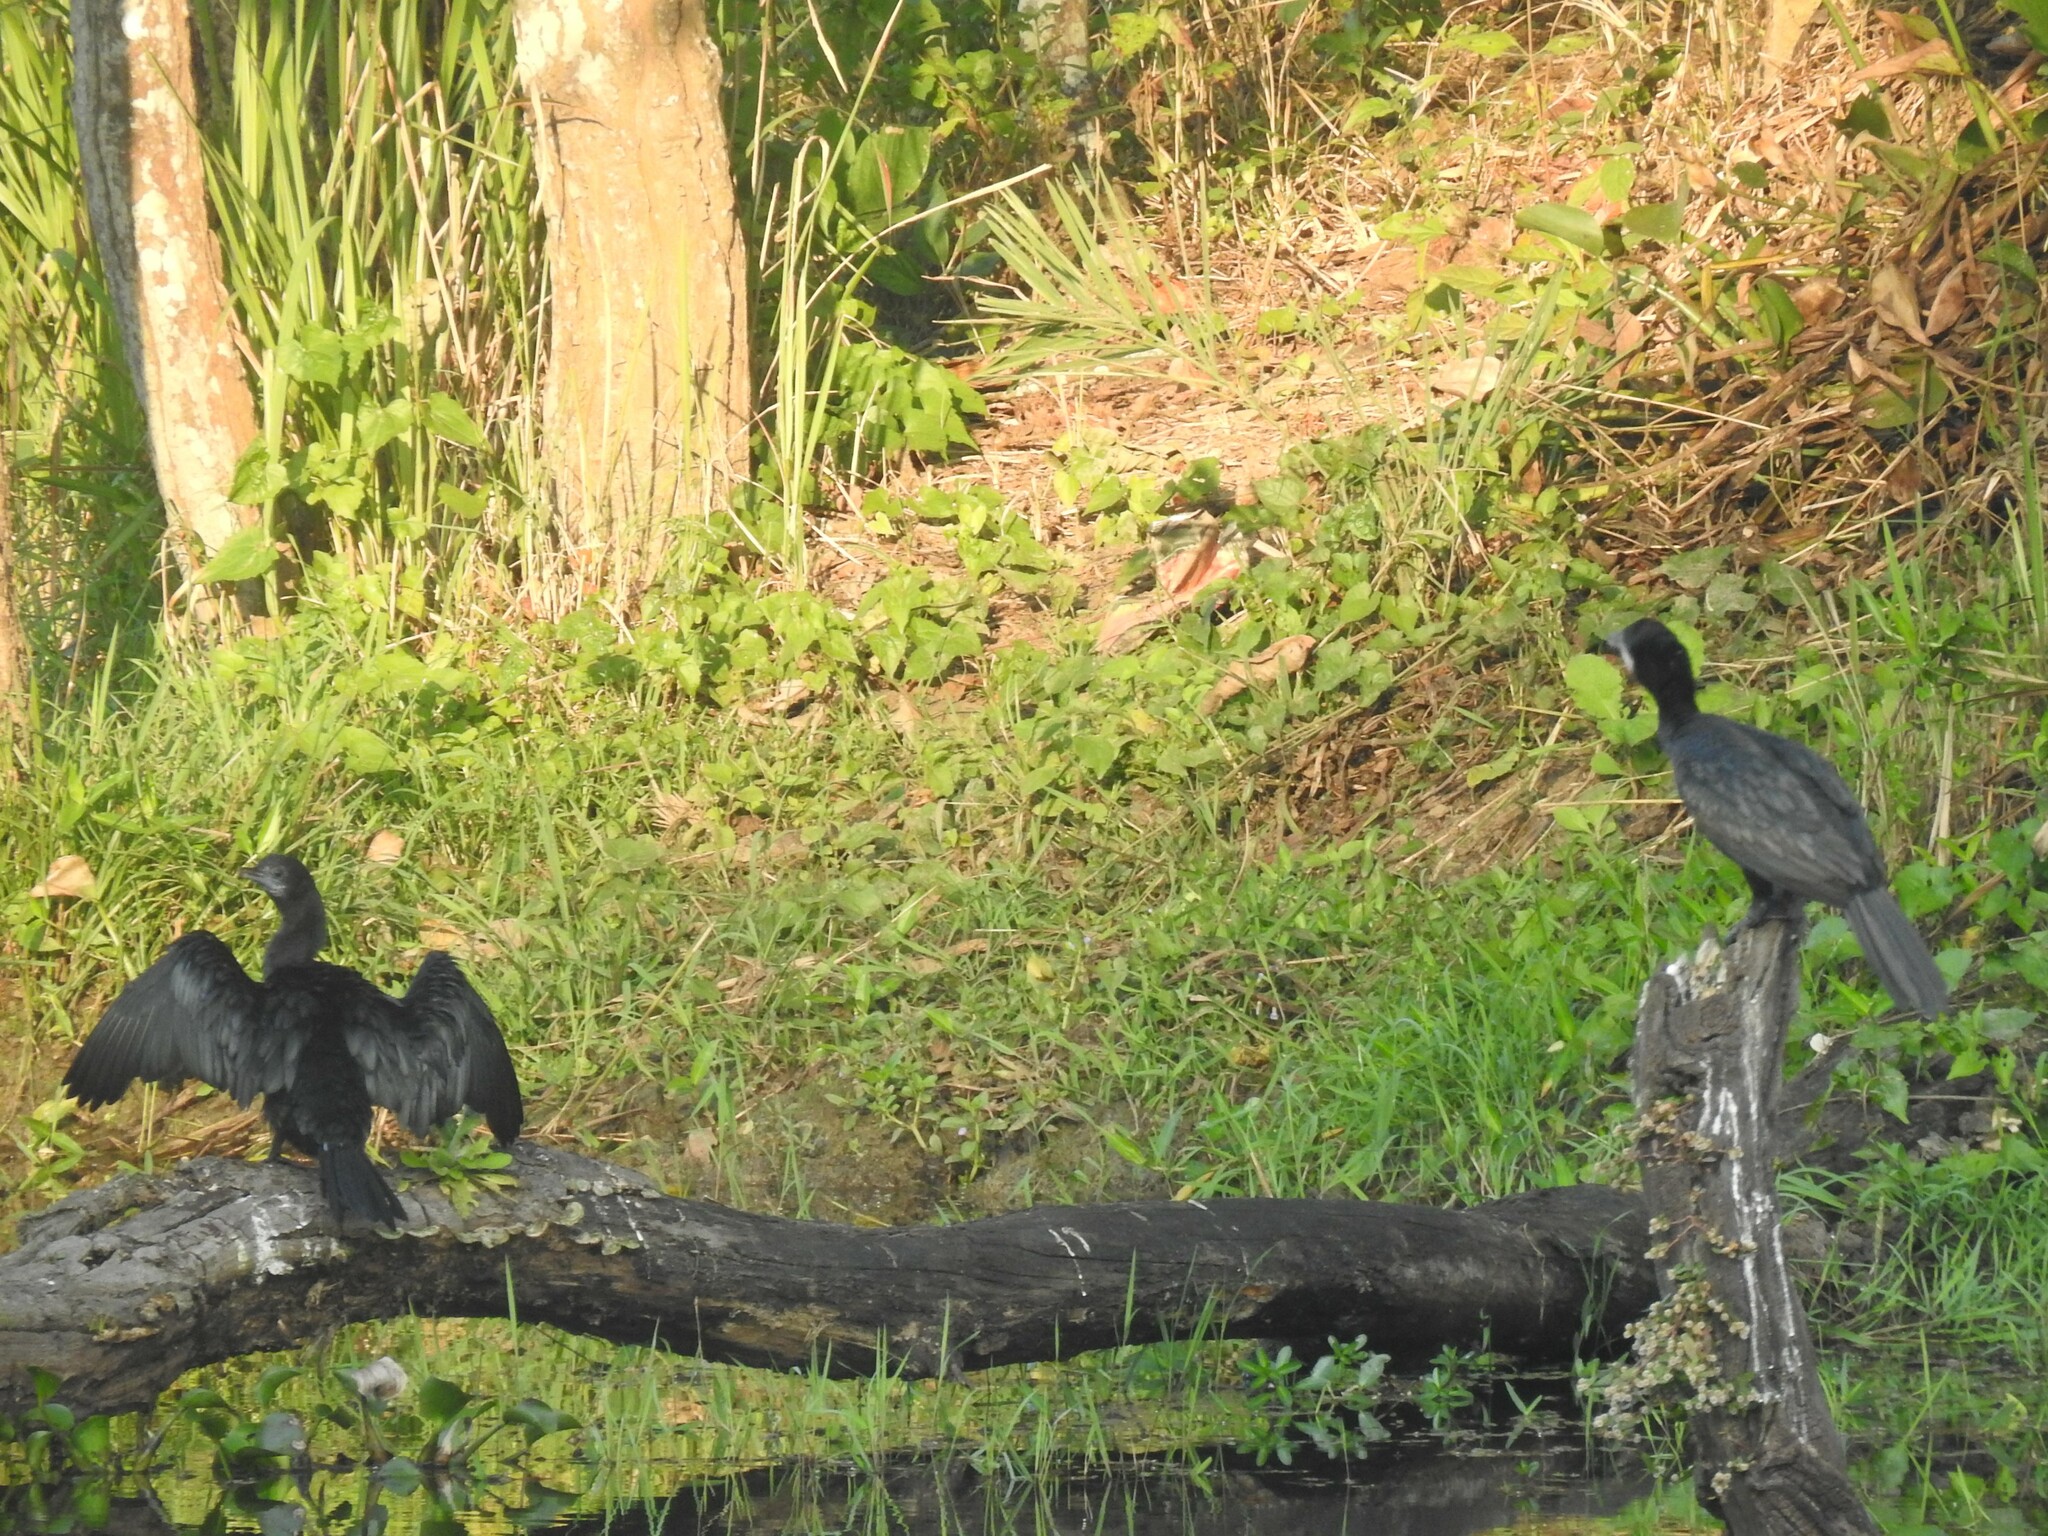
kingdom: Animalia
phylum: Chordata
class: Aves
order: Suliformes
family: Phalacrocoracidae
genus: Microcarbo
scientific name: Microcarbo niger
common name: Little cormorant
